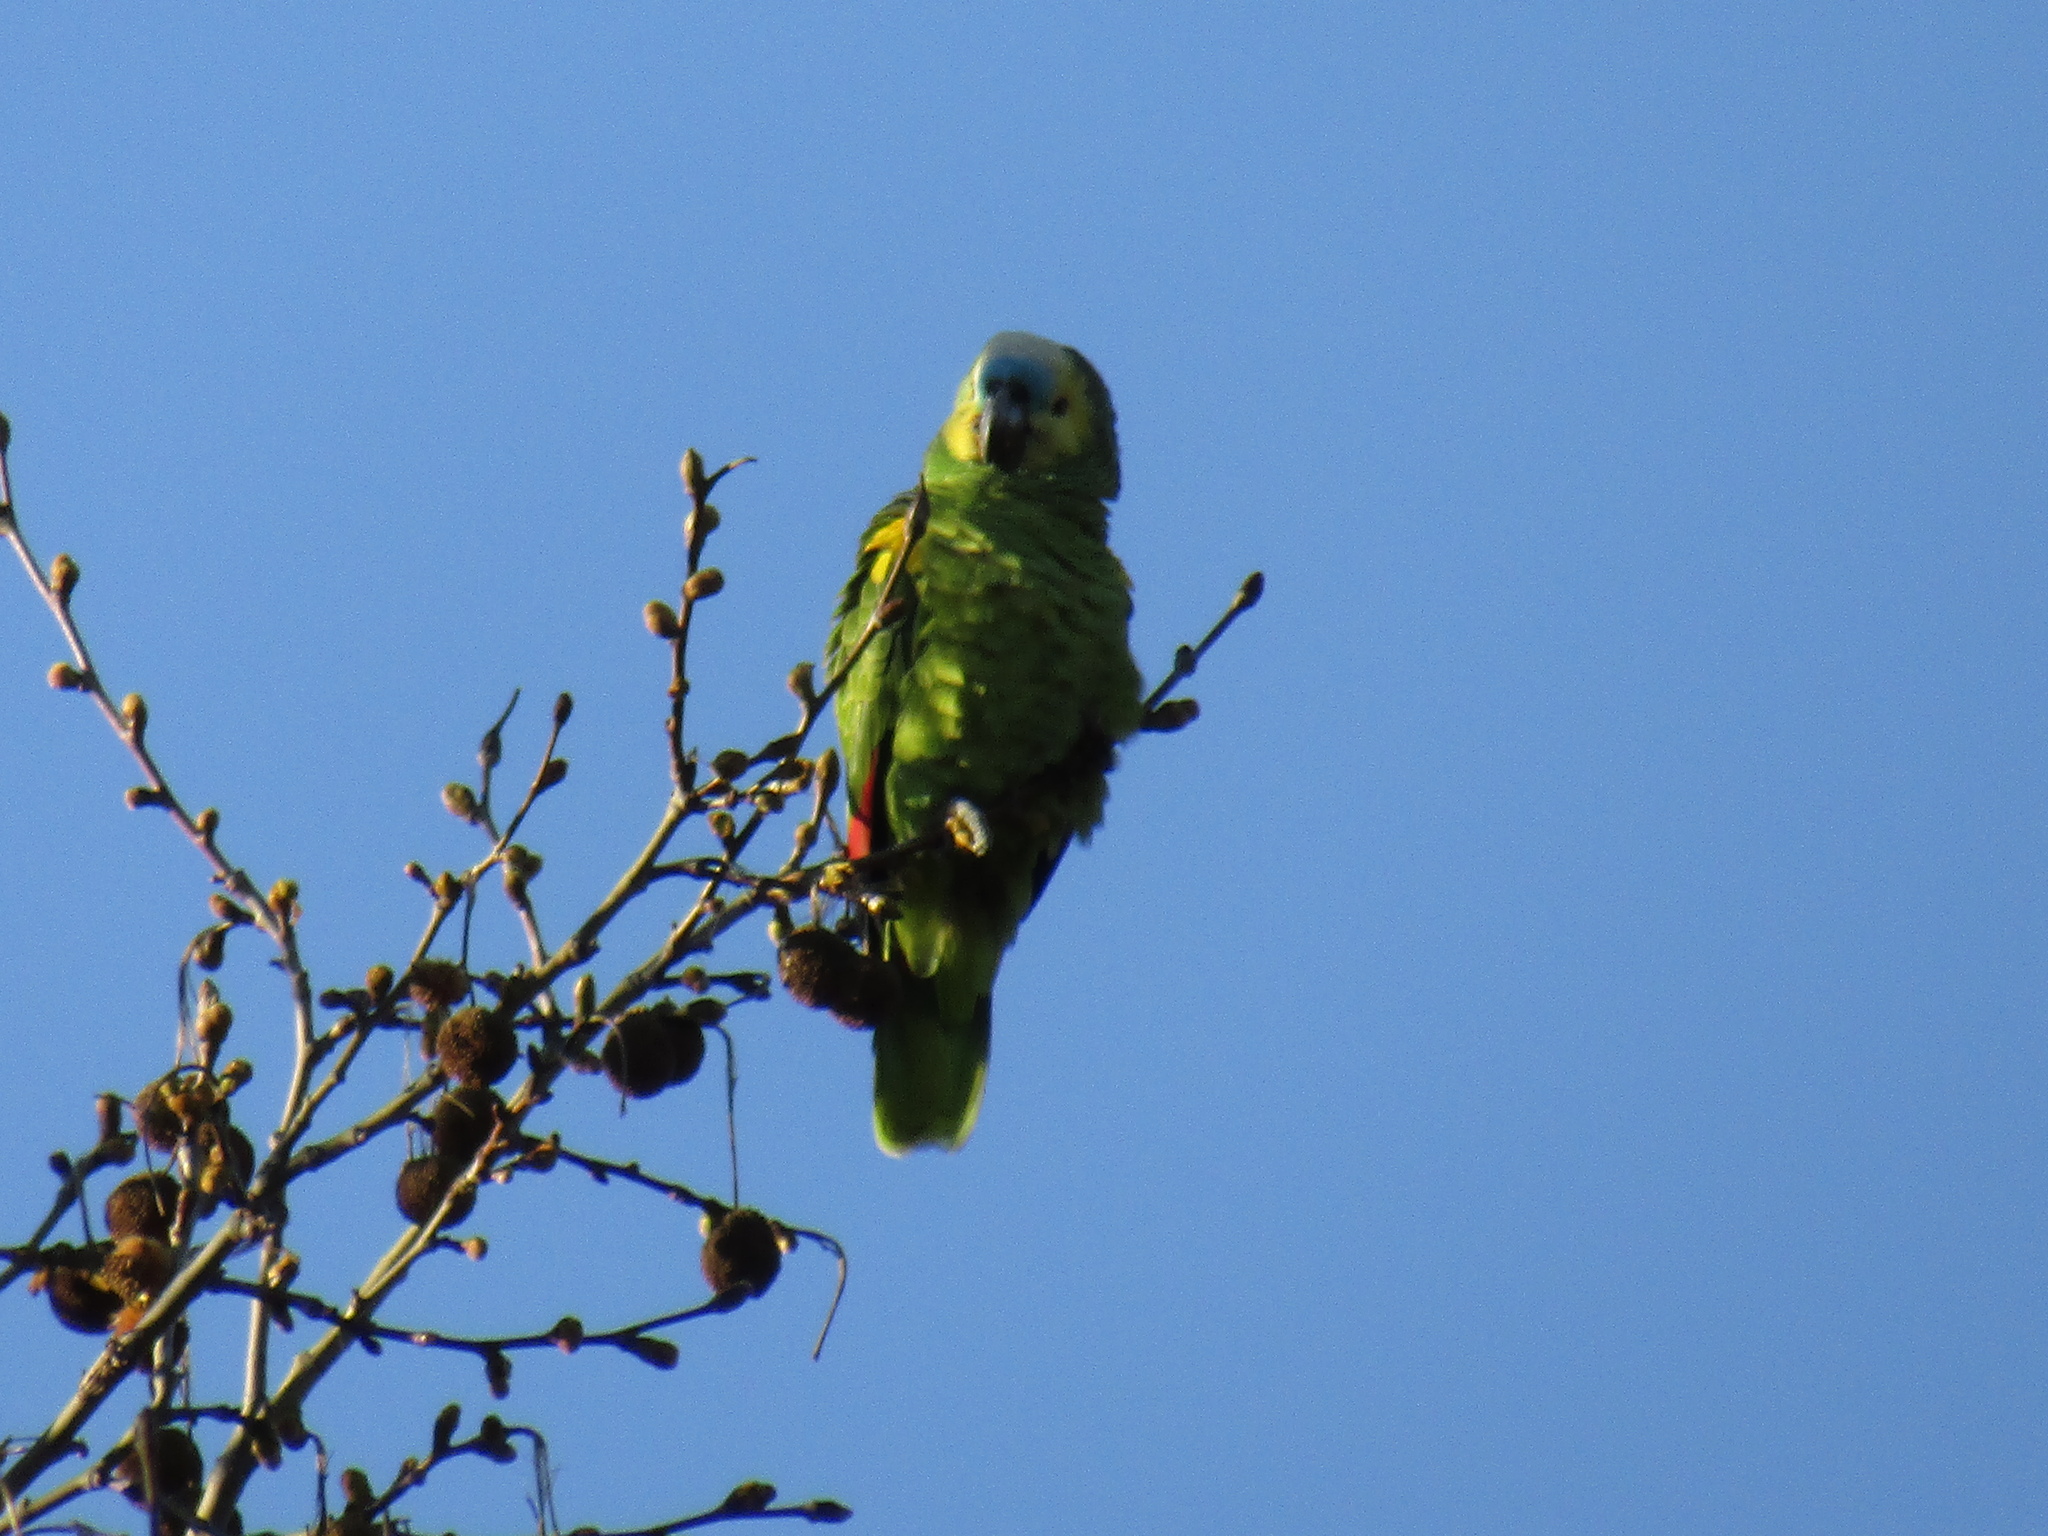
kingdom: Animalia
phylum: Chordata
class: Aves
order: Psittaciformes
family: Psittacidae
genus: Amazona
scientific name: Amazona aestiva
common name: Turquoise-fronted amazon
